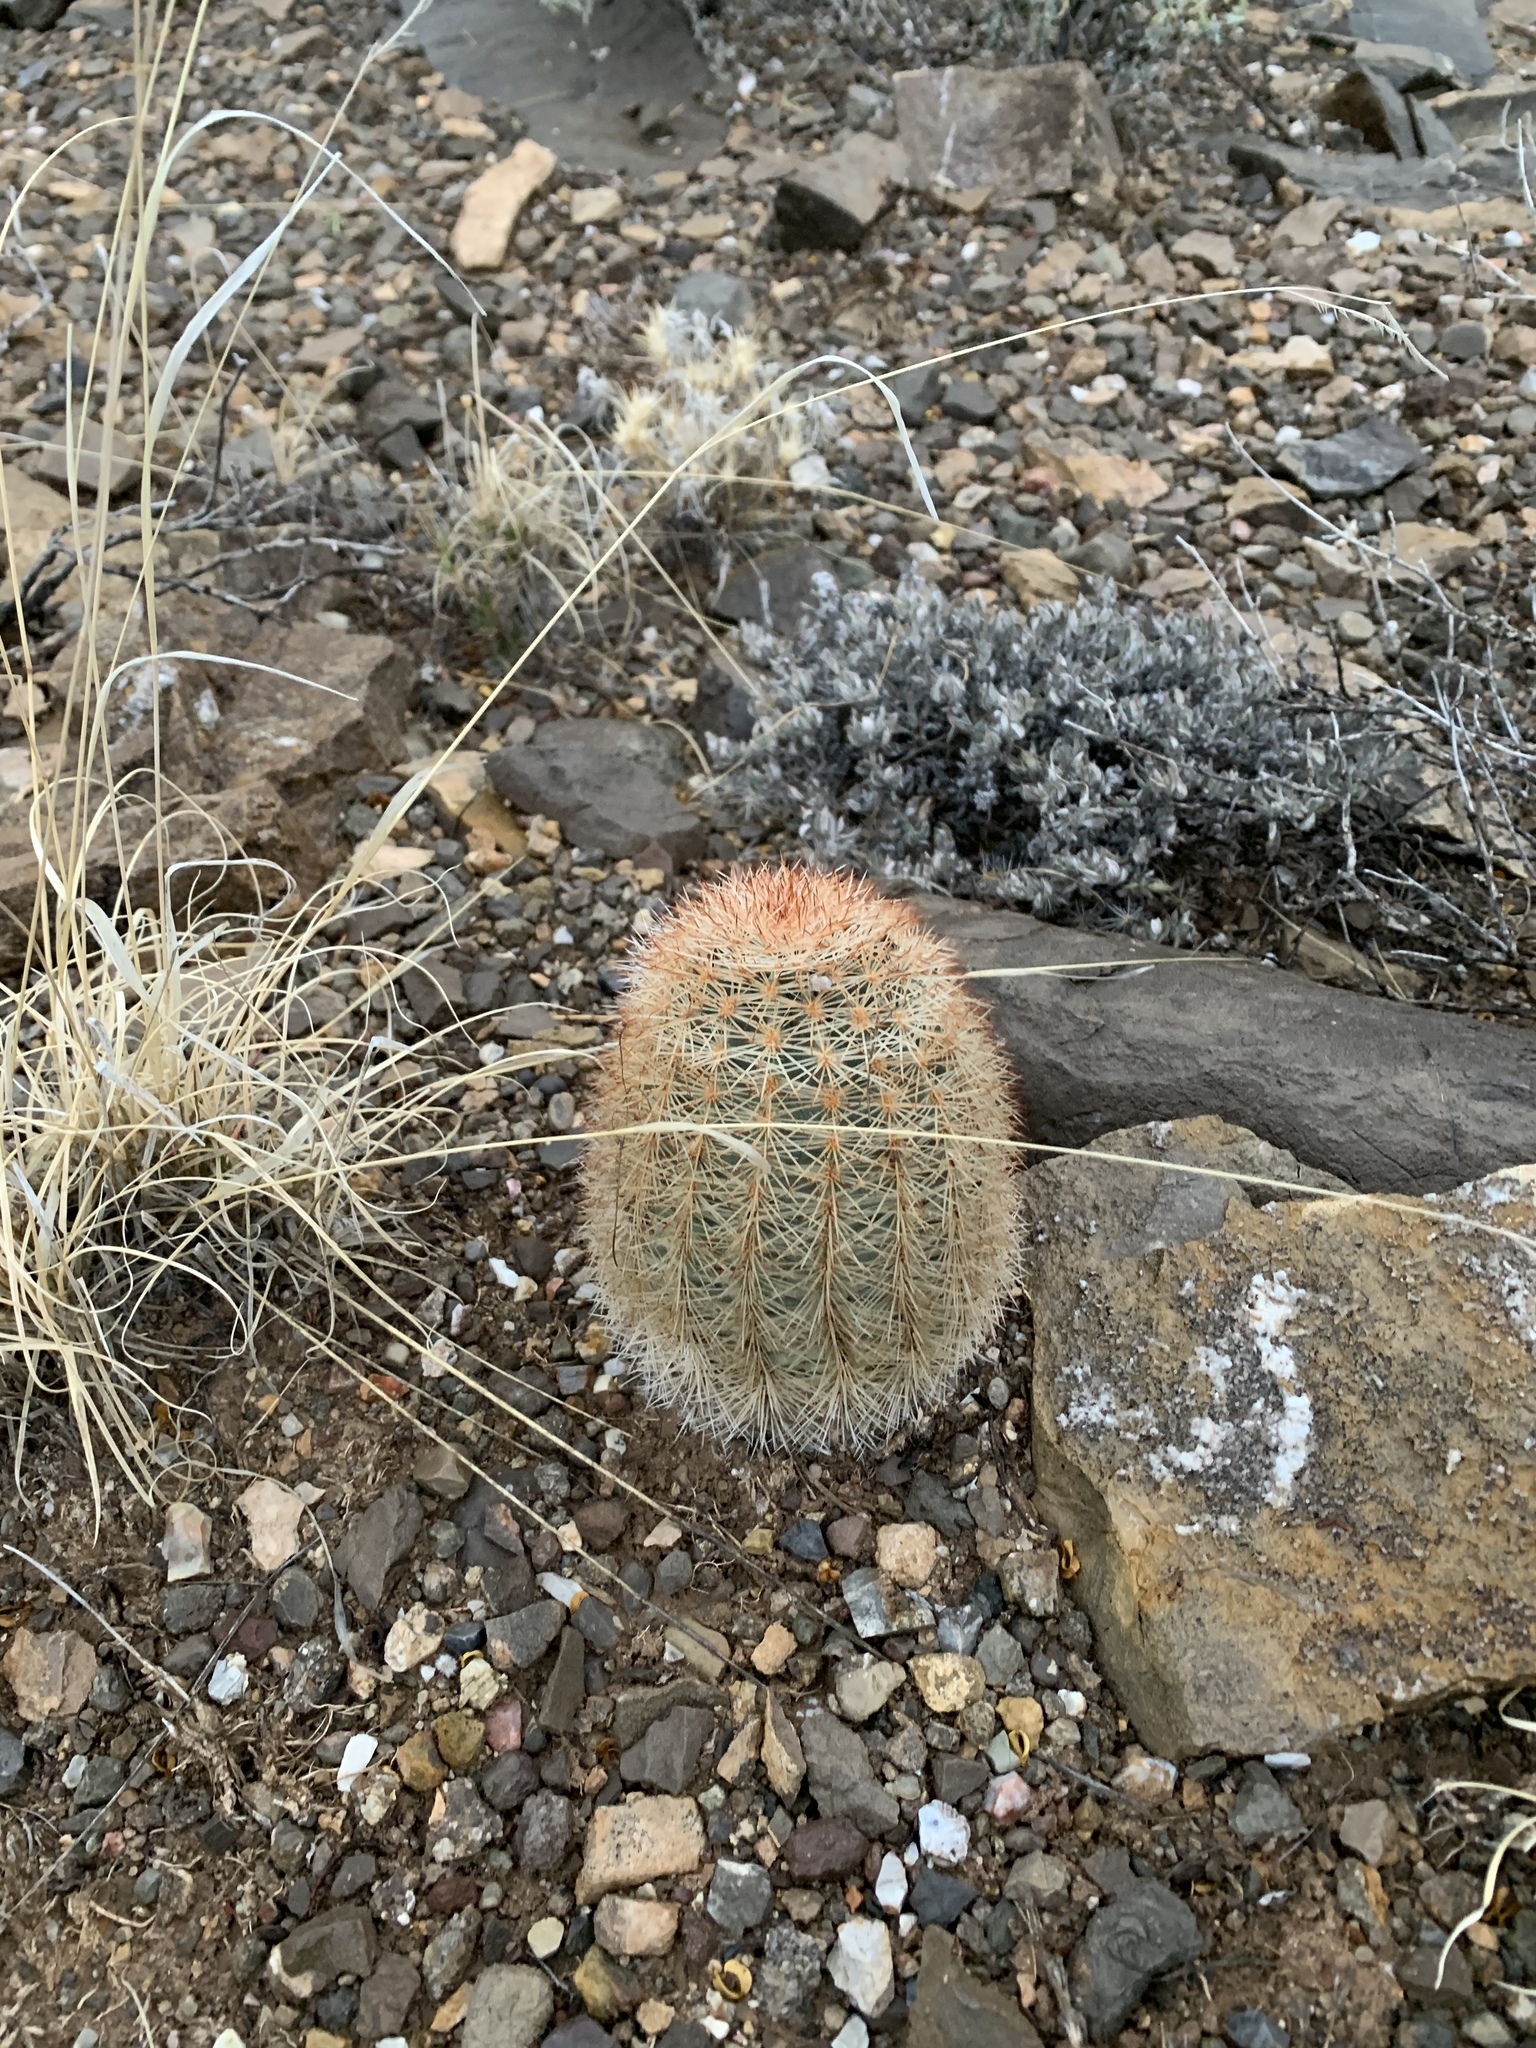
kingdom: Plantae
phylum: Tracheophyta
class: Magnoliopsida
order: Caryophyllales
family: Cactaceae
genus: Echinocereus
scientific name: Echinocereus dasyacanthus
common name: Spiny hedgehog cactus
